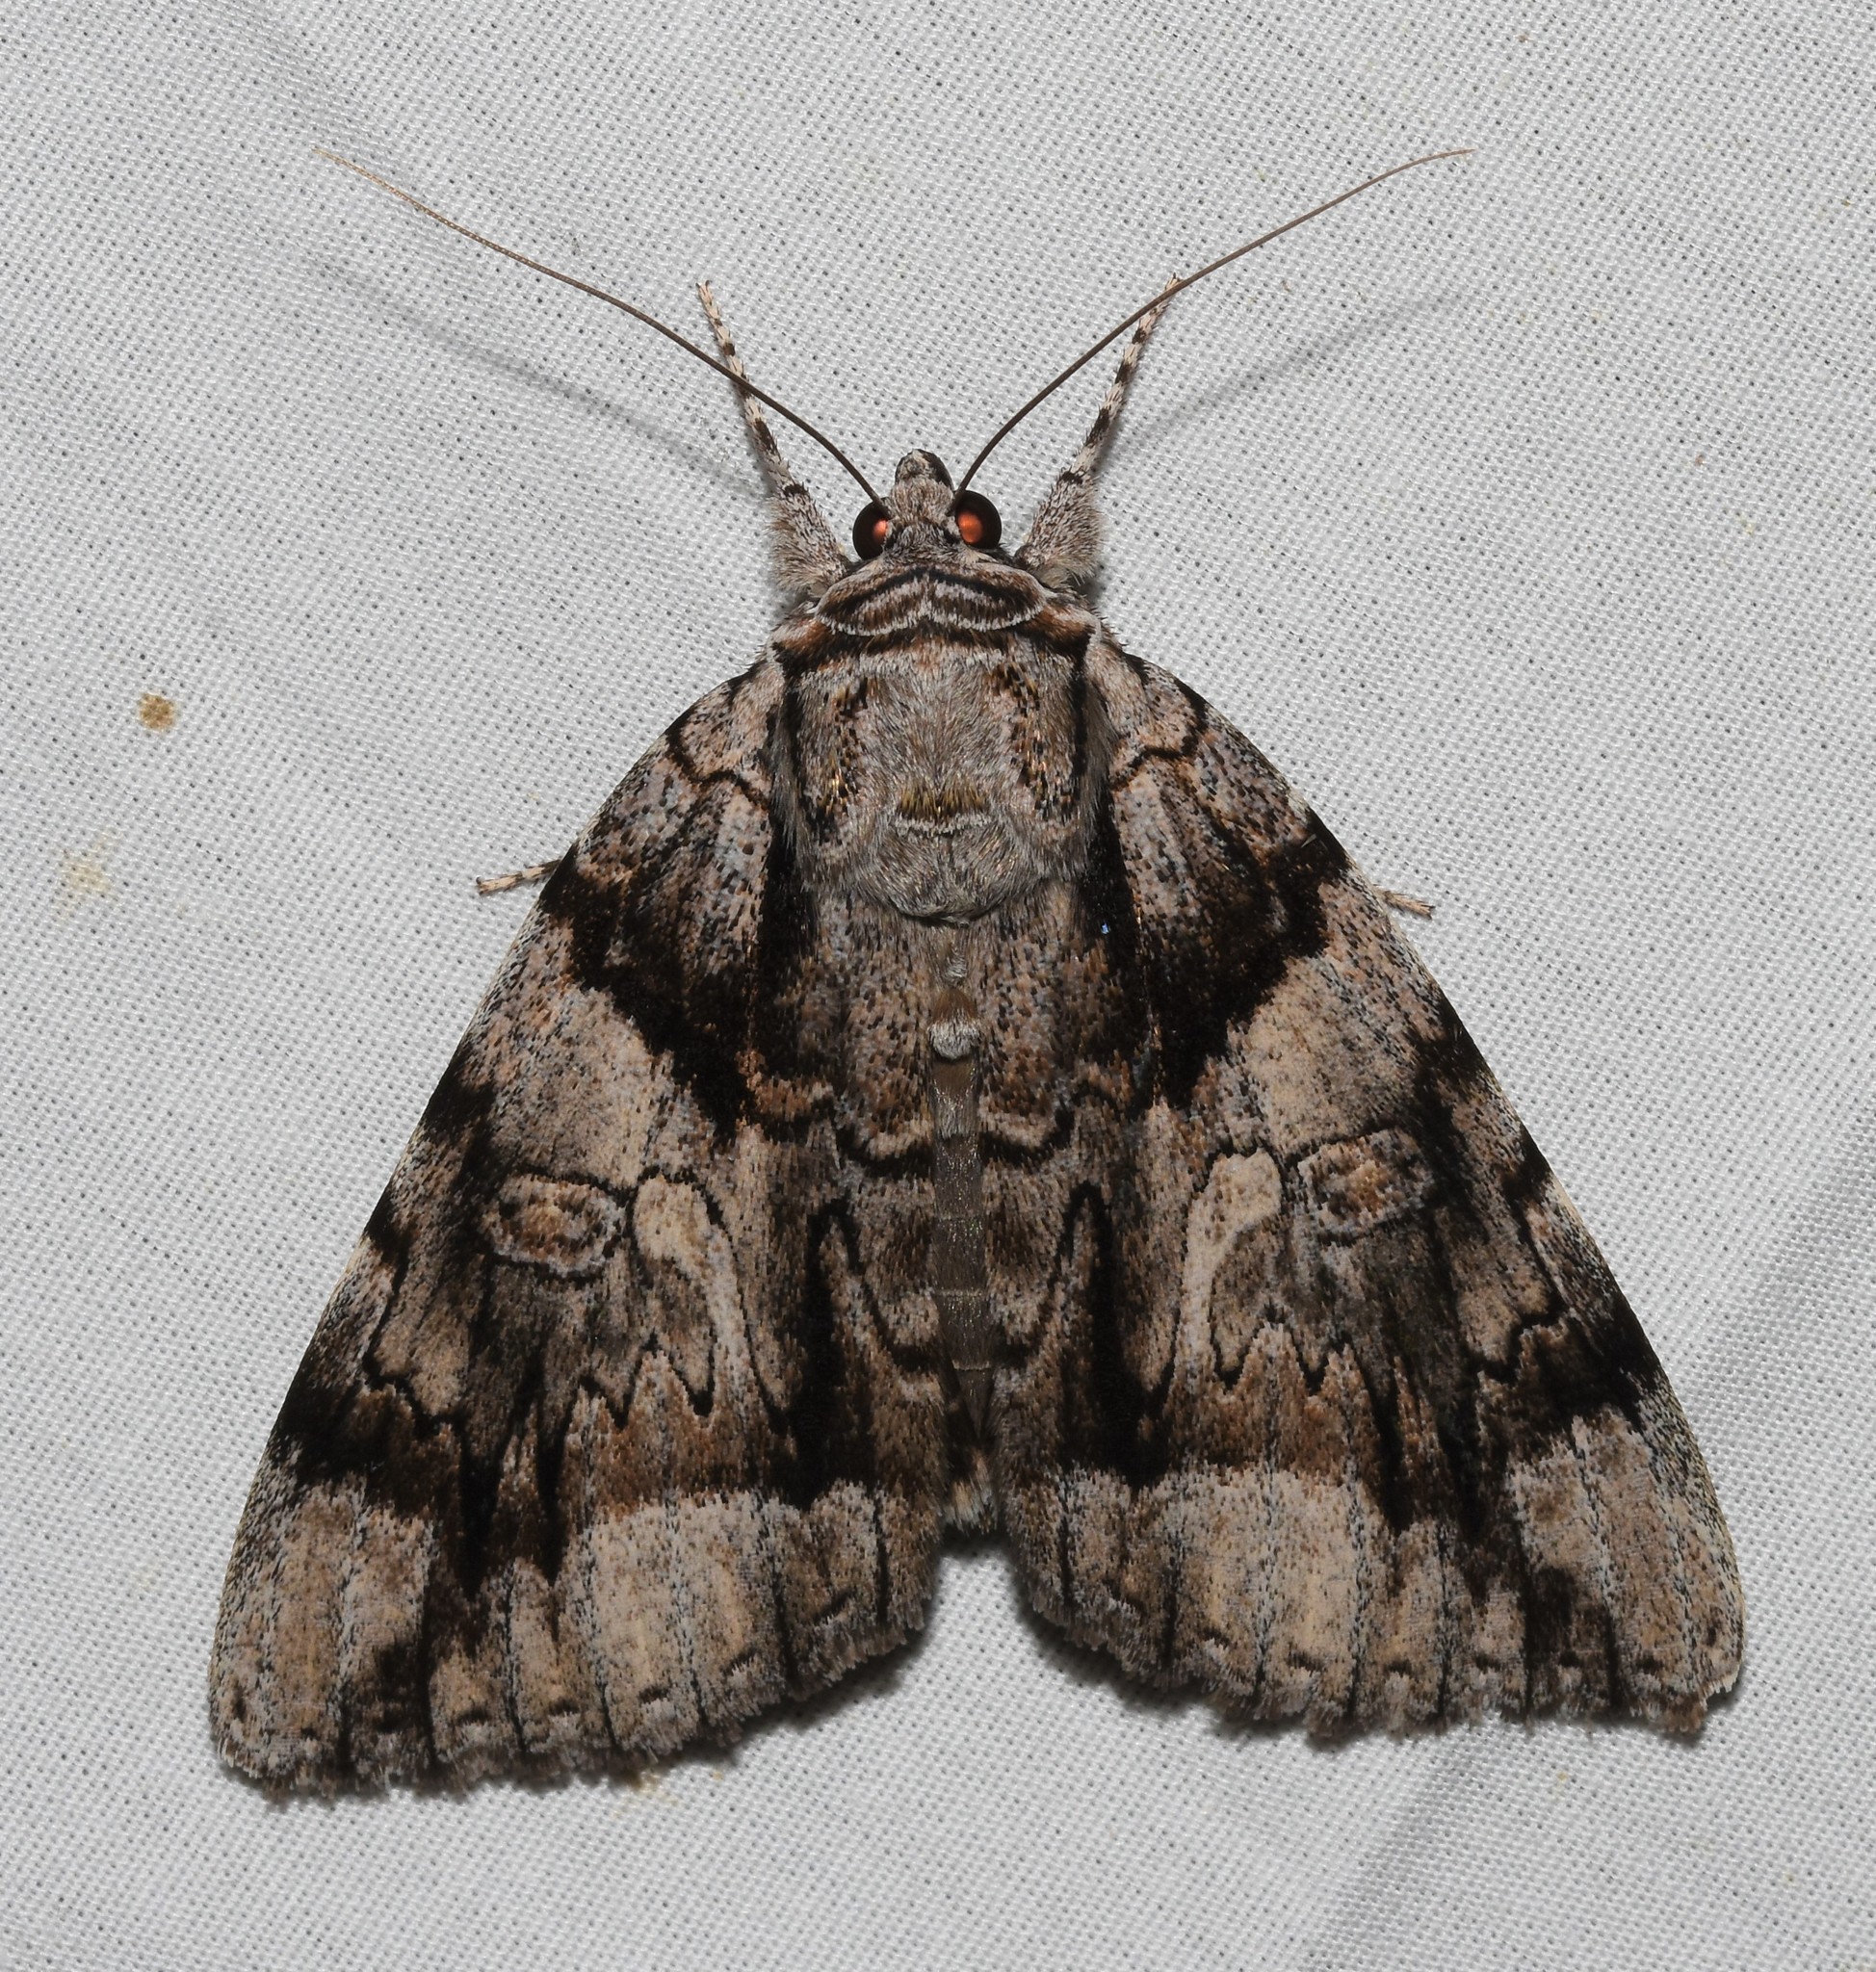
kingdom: Animalia
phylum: Arthropoda
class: Insecta
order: Lepidoptera
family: Erebidae
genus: Catocala
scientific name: Catocala vidua
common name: The widow
